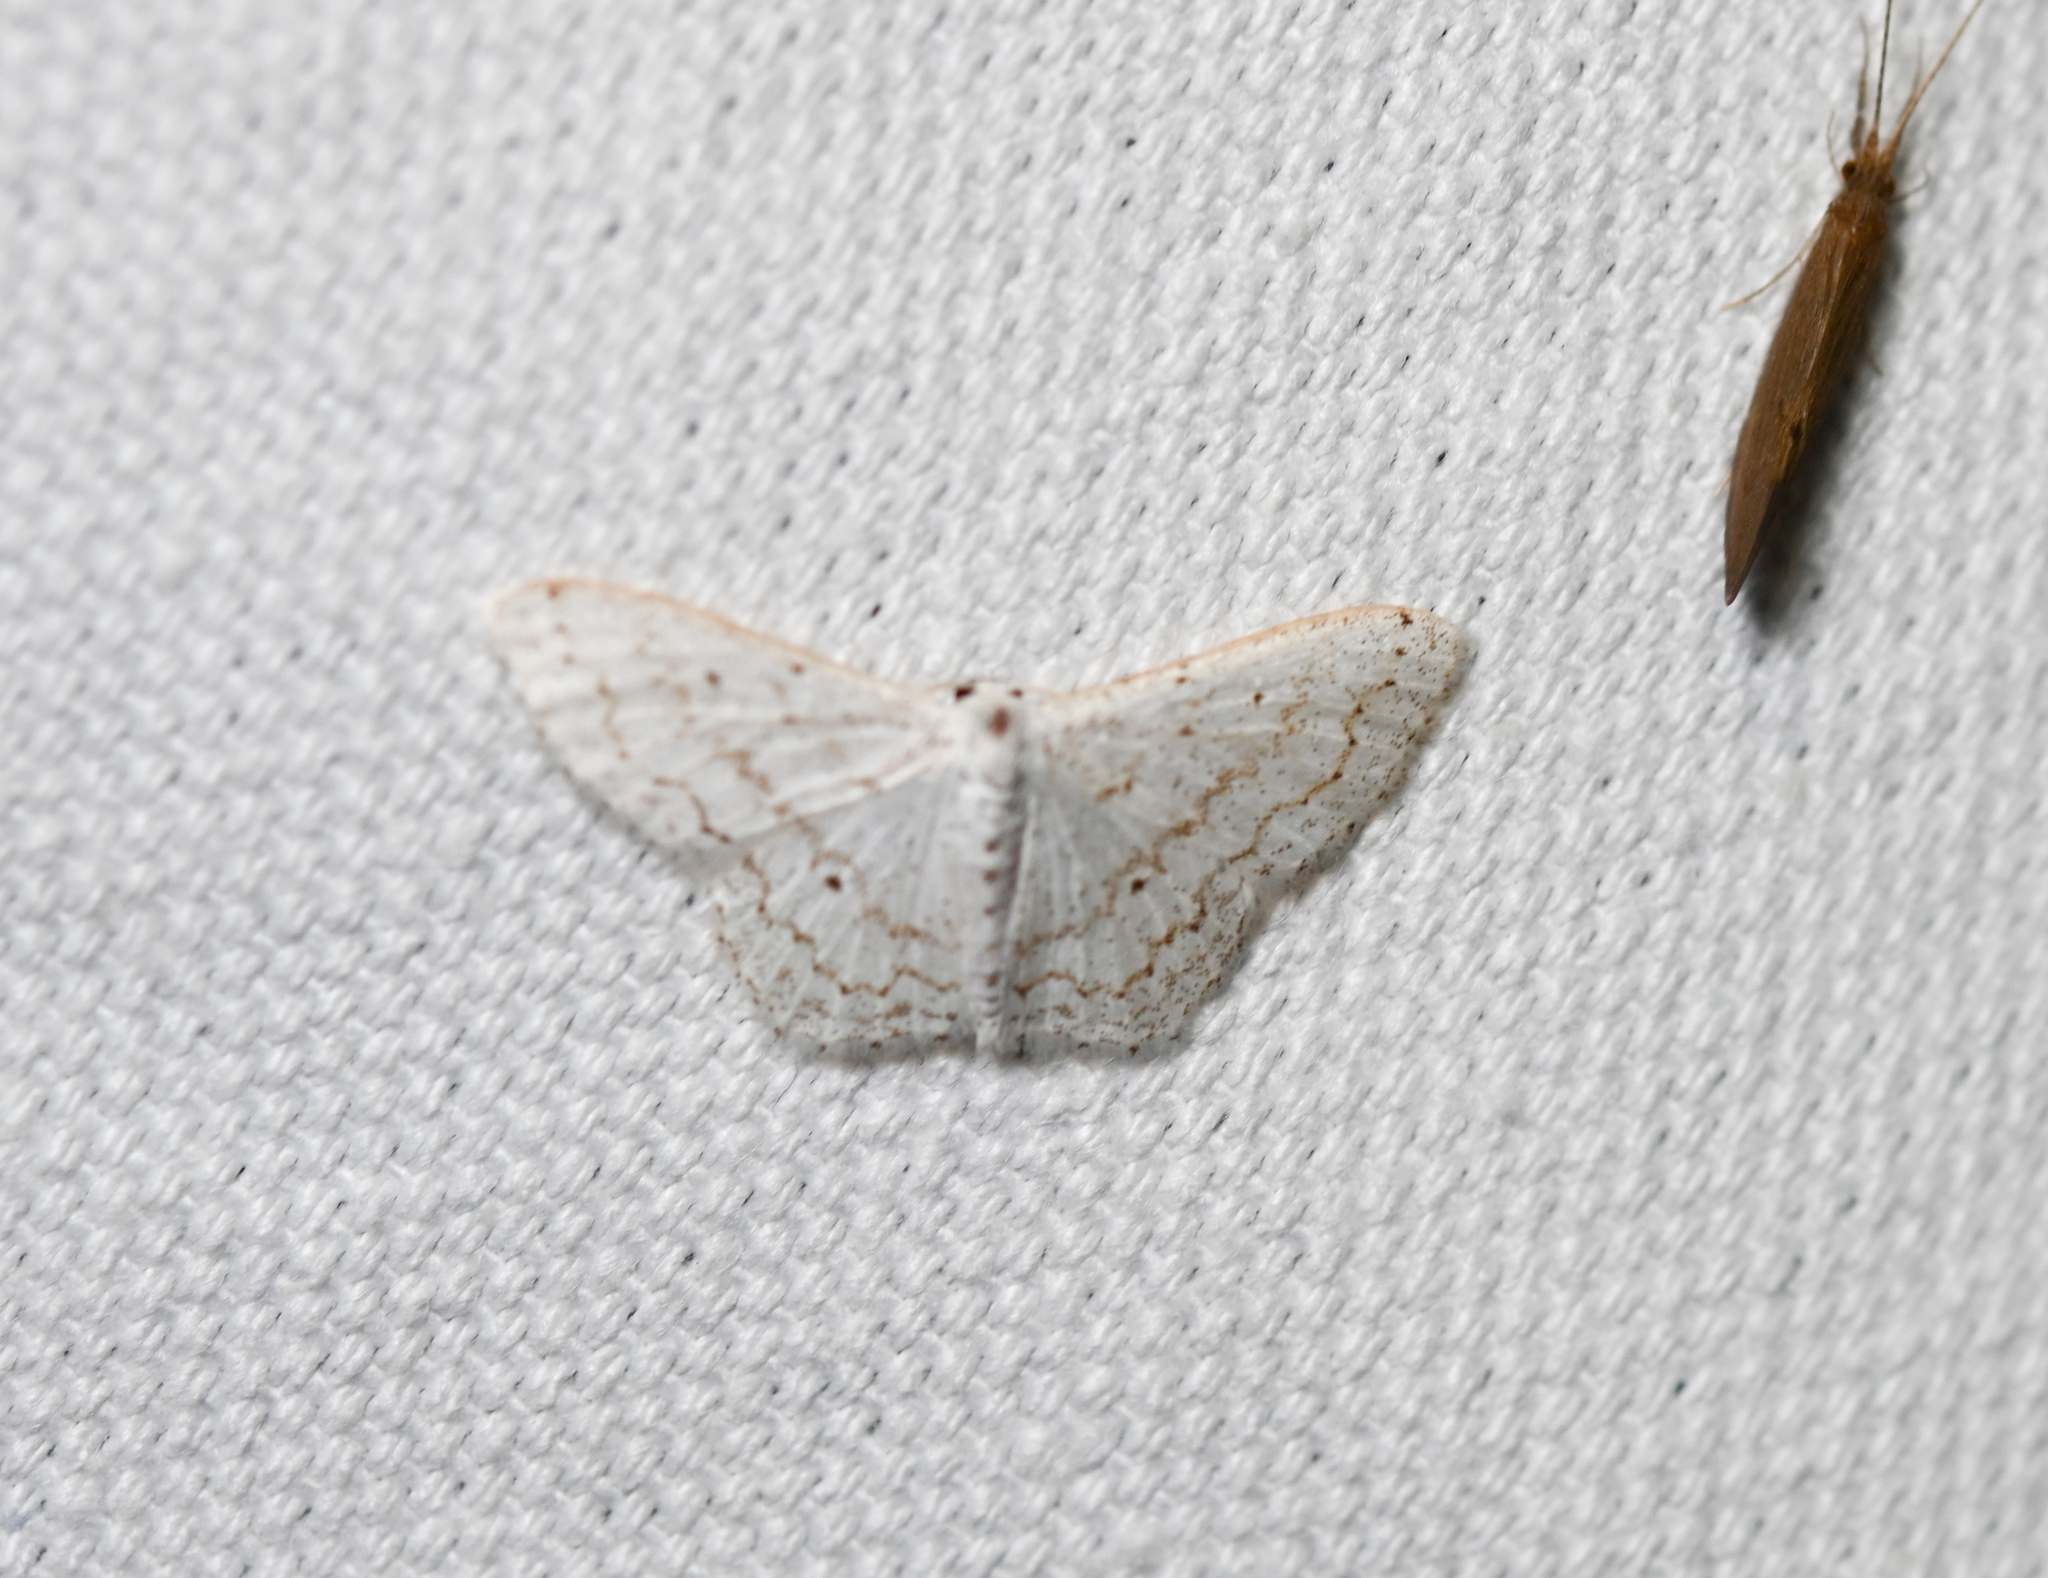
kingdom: Animalia
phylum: Arthropoda
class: Insecta
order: Lepidoptera
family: Geometridae
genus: Idaea
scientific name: Idaea tacturata
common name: Dot-lined wave
